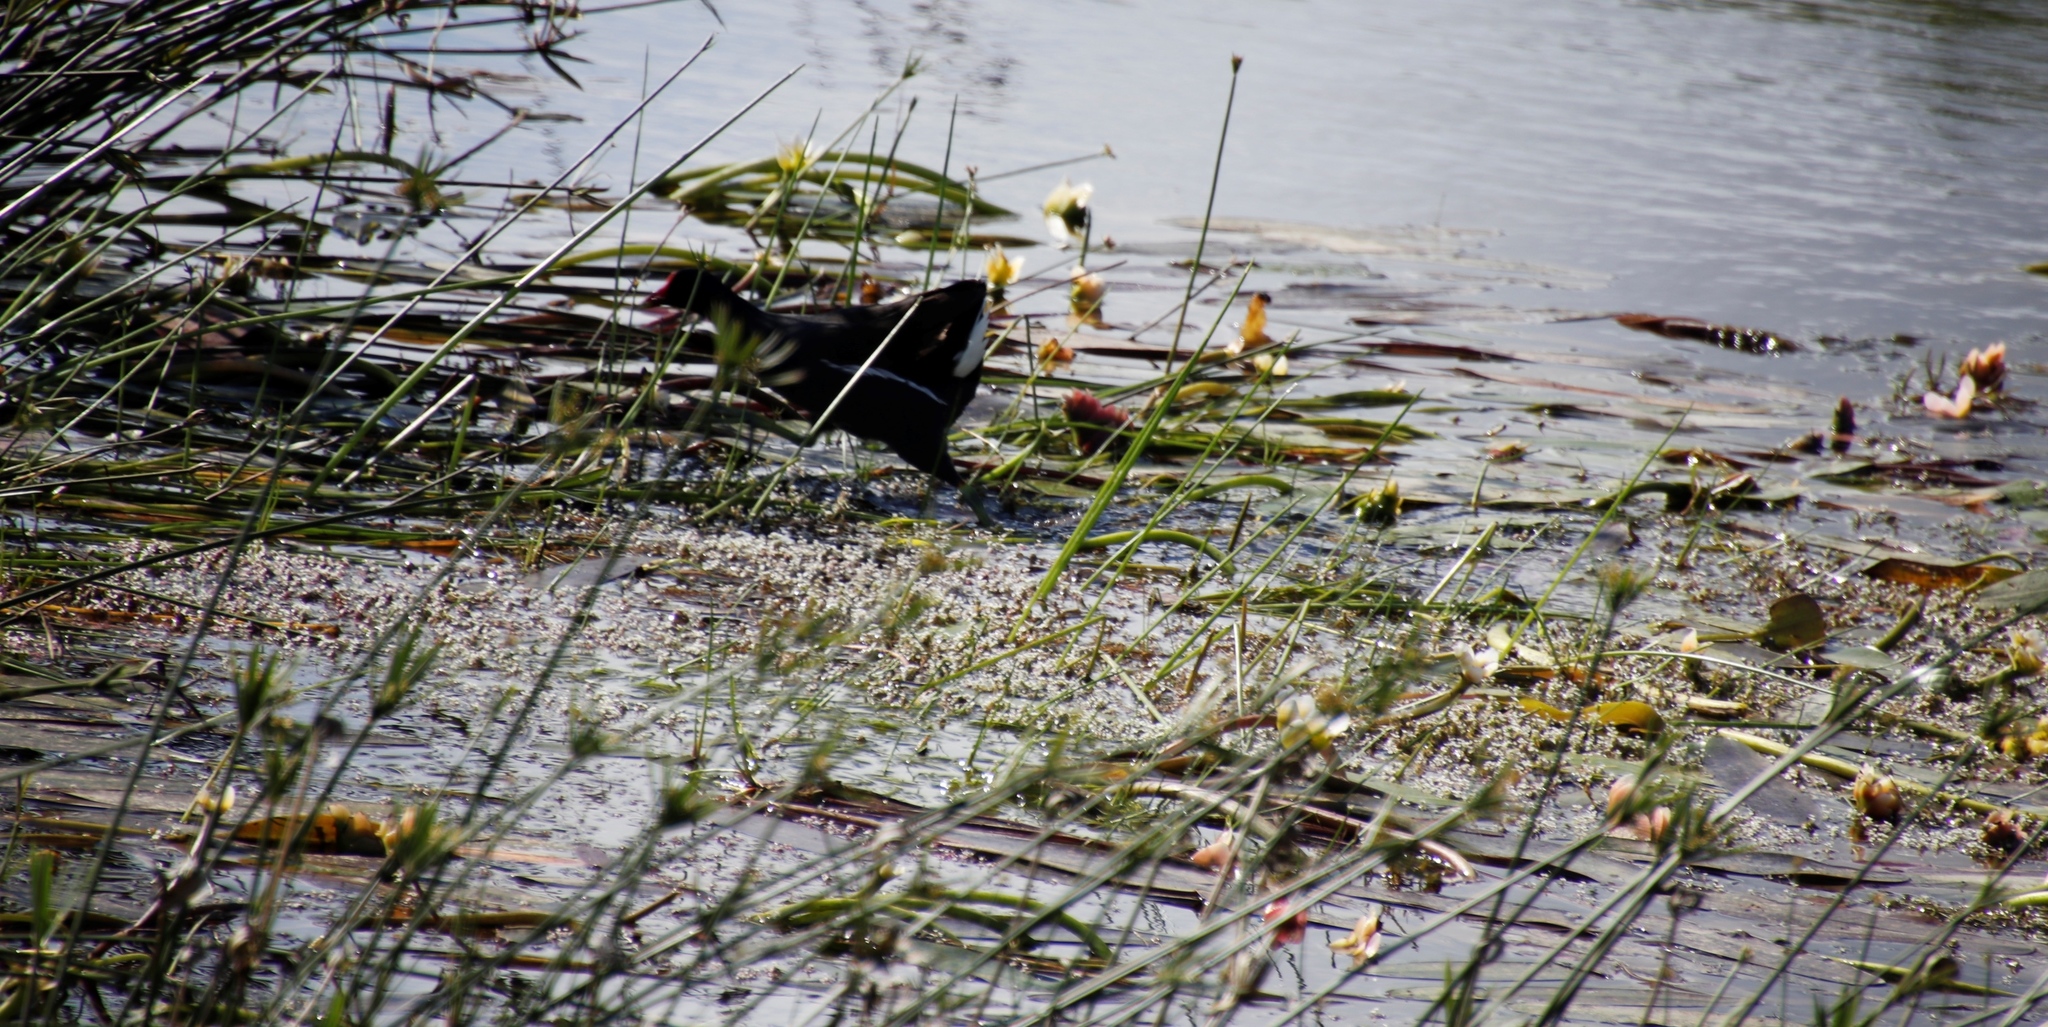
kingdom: Plantae
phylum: Tracheophyta
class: Liliopsida
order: Alismatales
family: Aponogetonaceae
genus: Aponogeton
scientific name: Aponogeton distachyos
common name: Cape-pondweed
